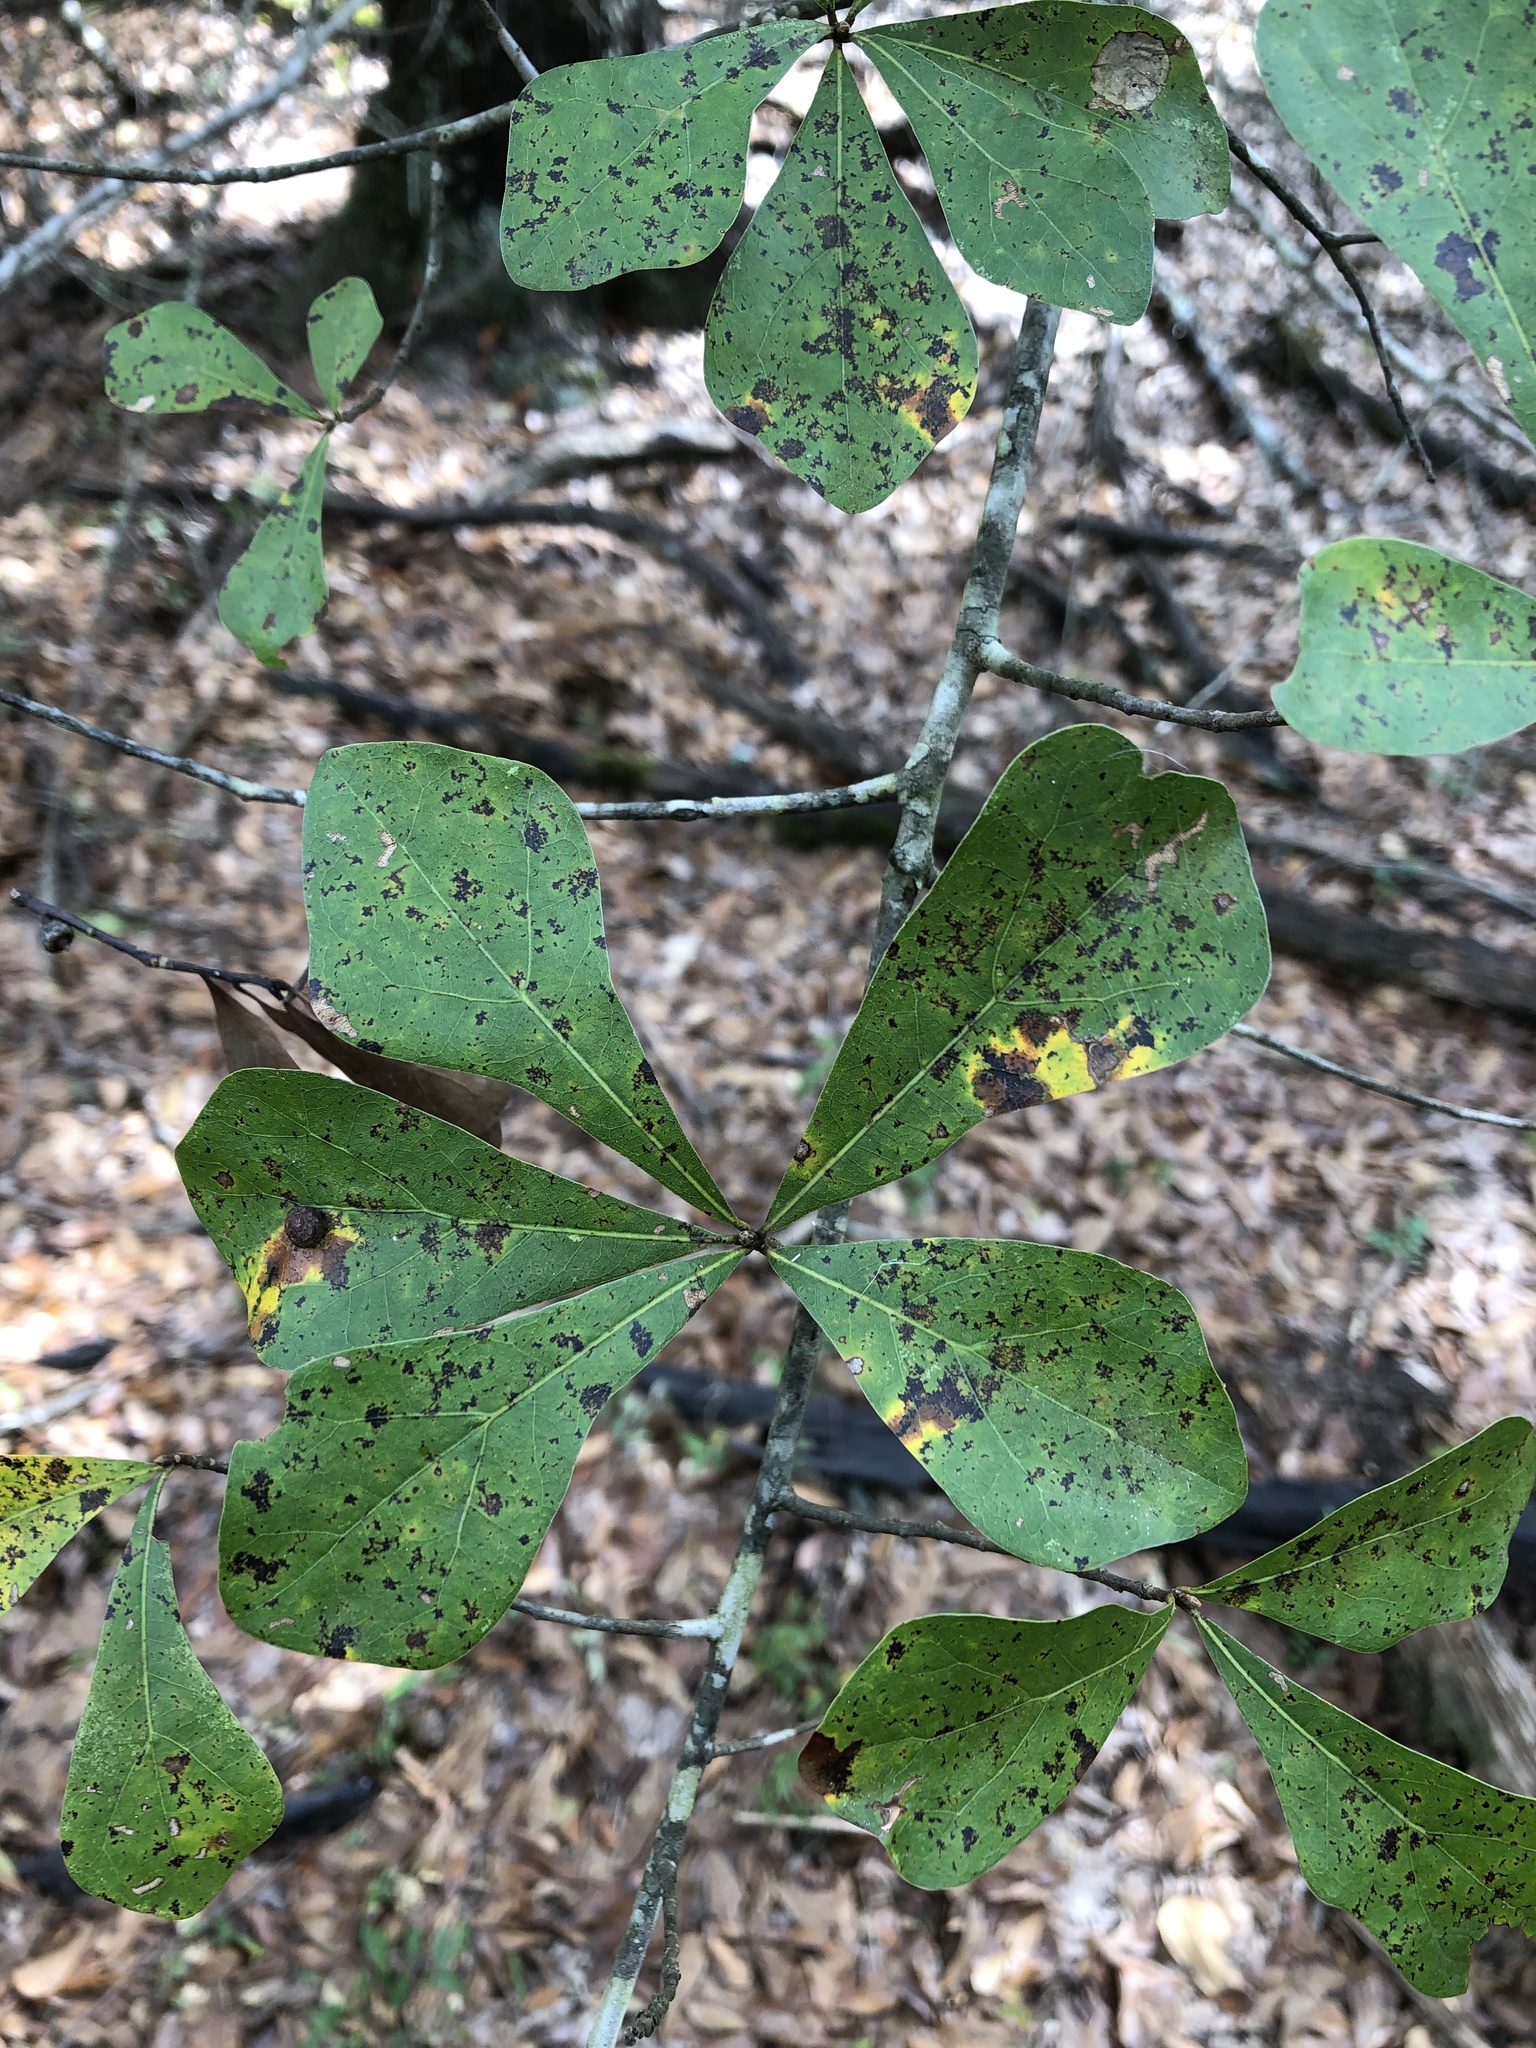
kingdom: Plantae
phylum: Tracheophyta
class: Magnoliopsida
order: Fagales
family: Fagaceae
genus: Quercus
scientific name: Quercus nigra
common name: Water oak
